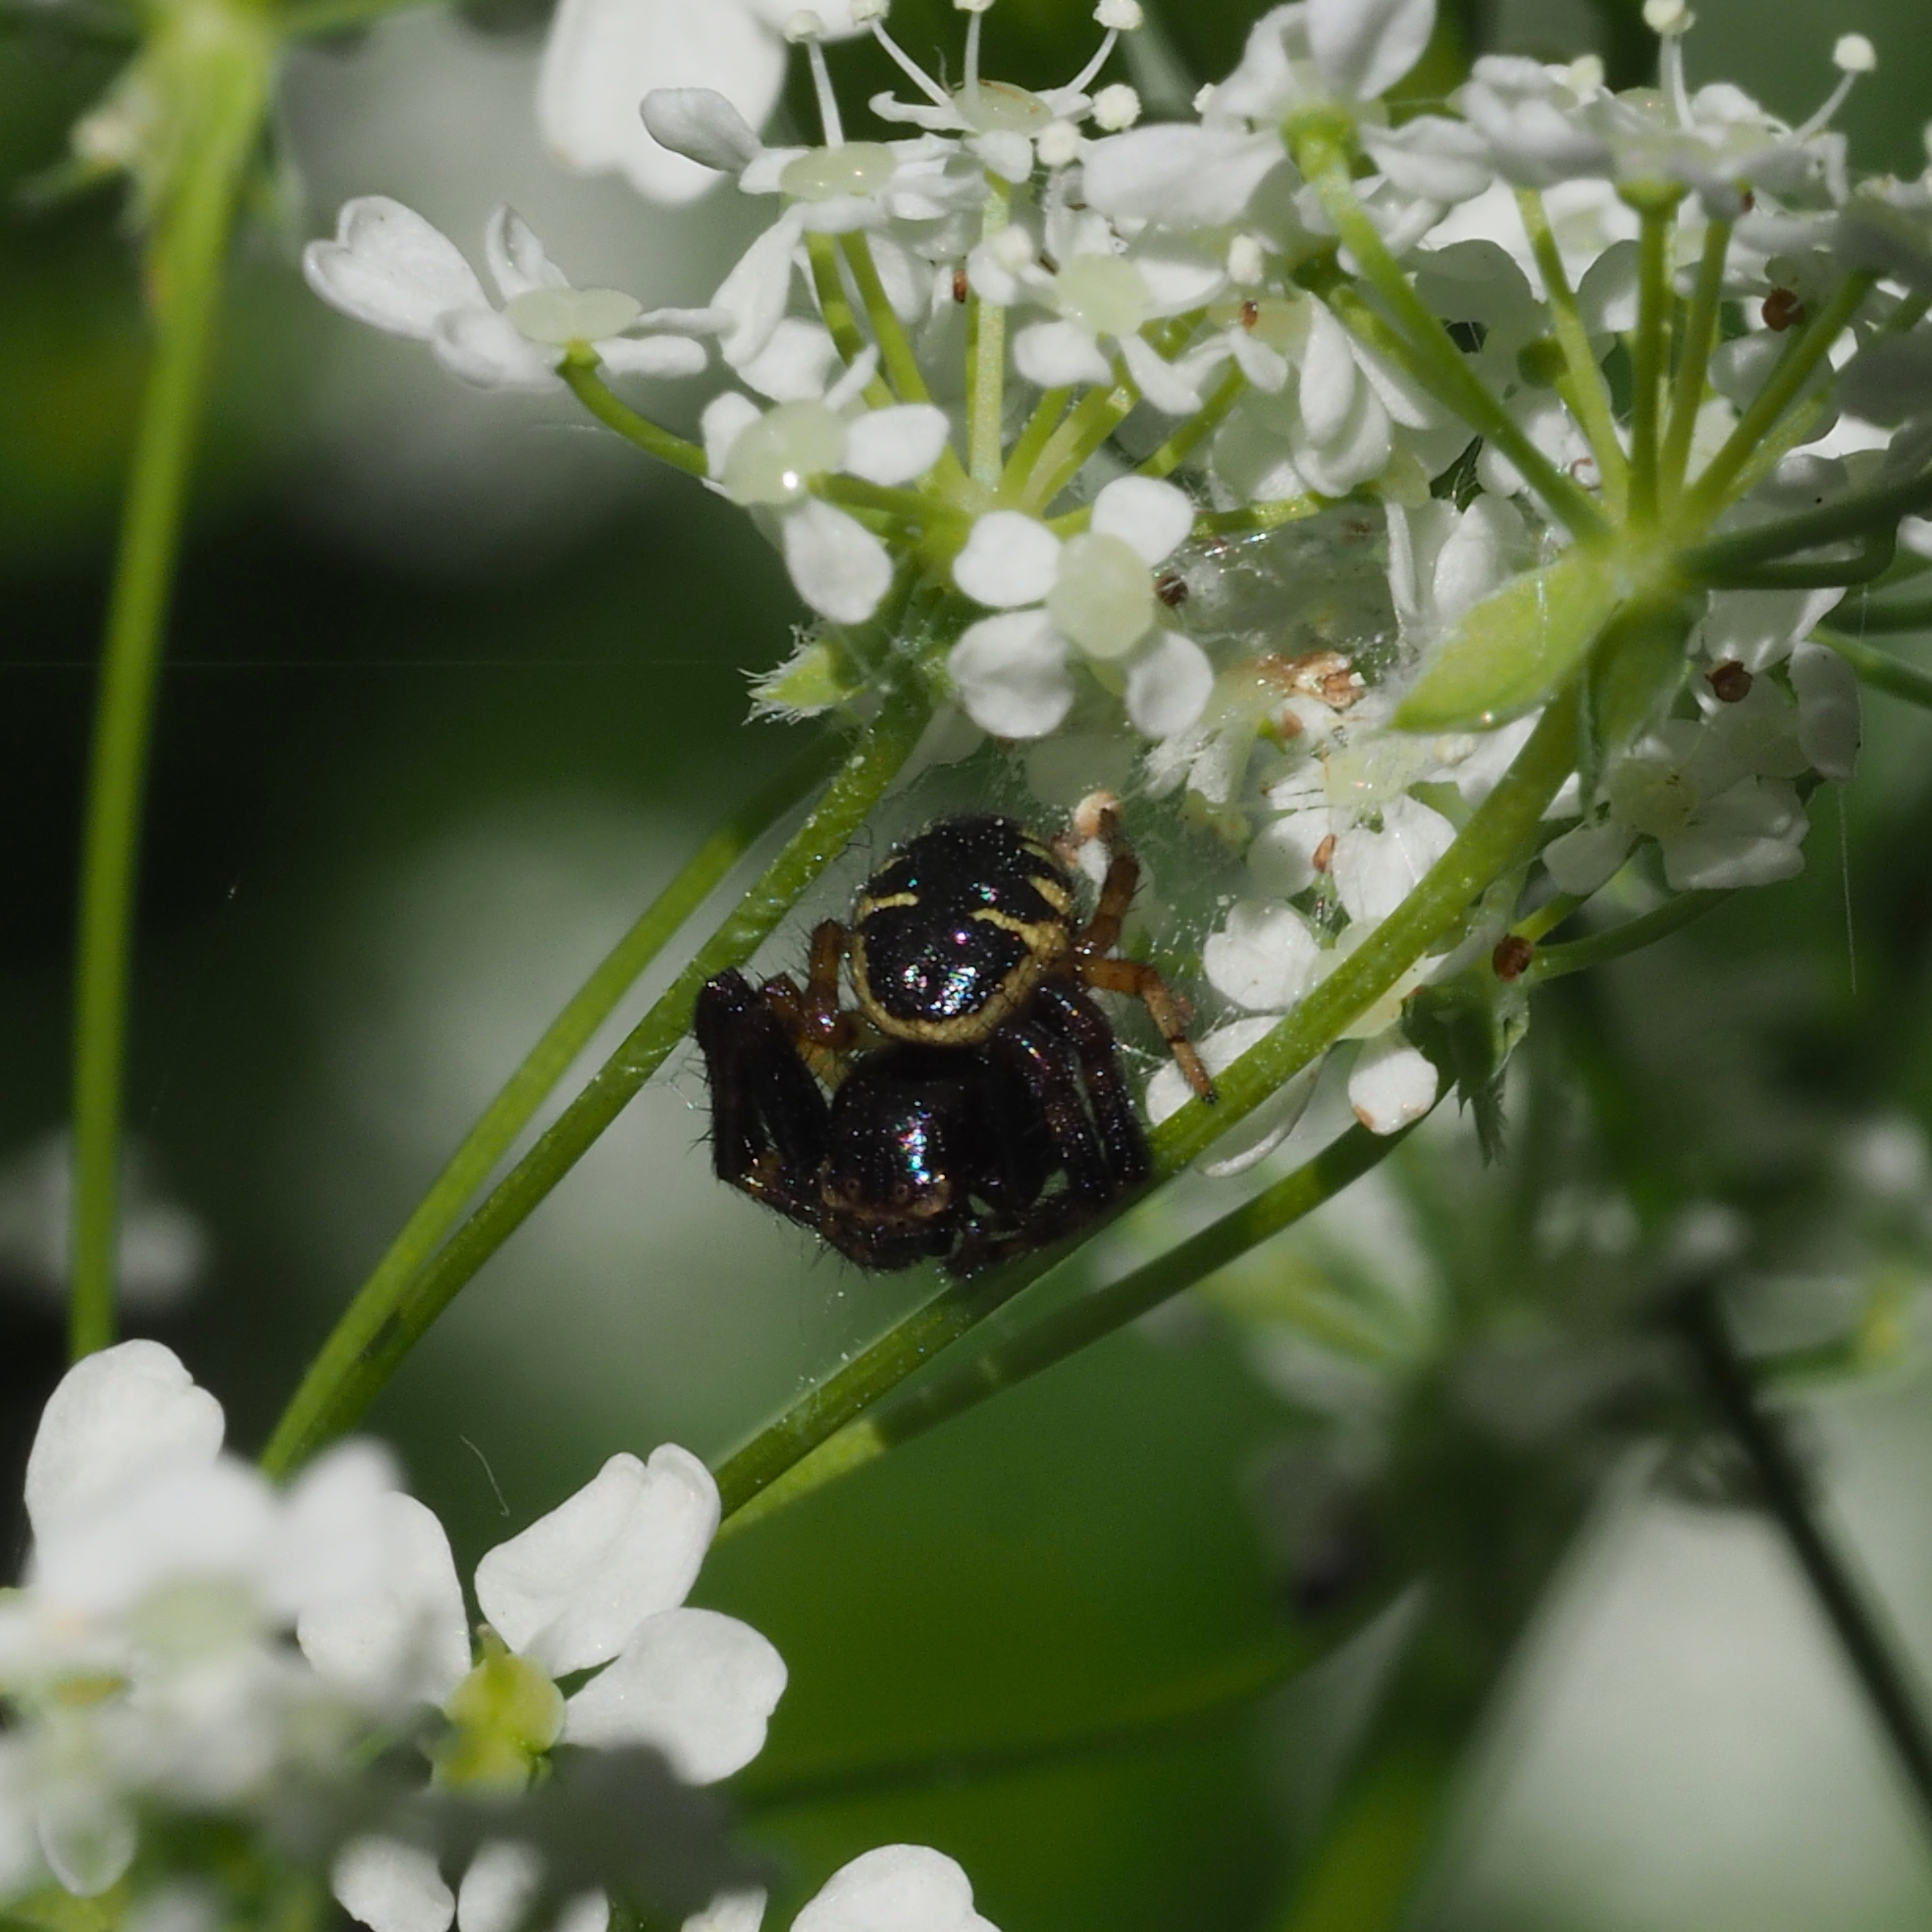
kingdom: Animalia
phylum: Arthropoda
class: Arachnida
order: Araneae
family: Thomisidae
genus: Synema
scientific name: Synema globosum
